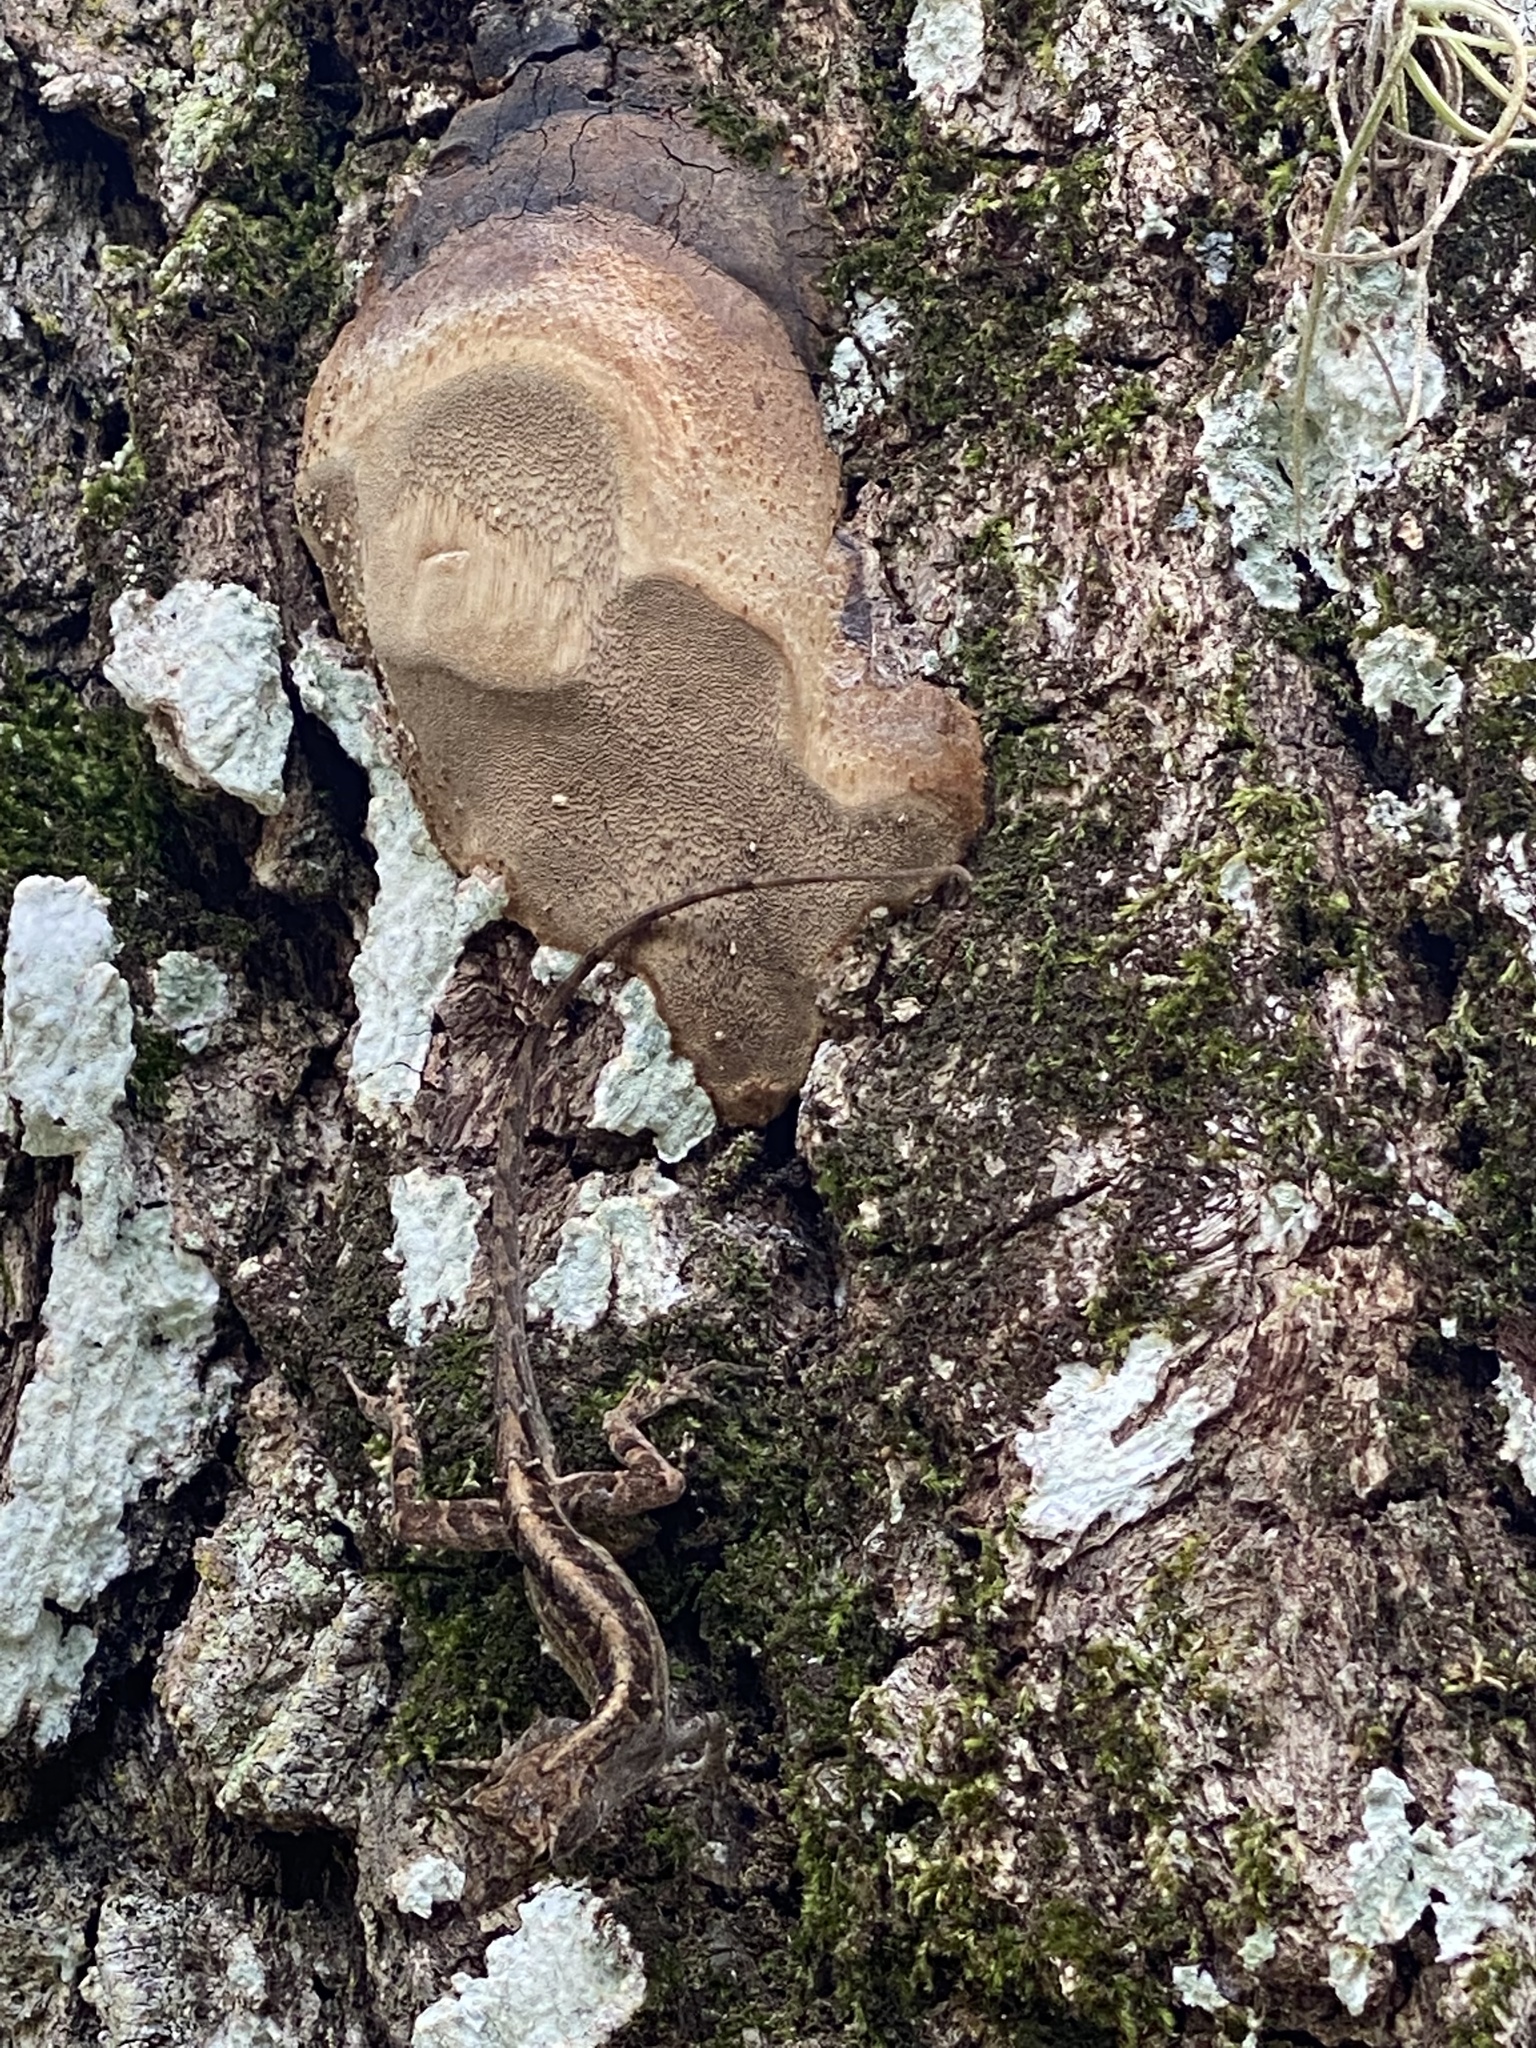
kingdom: Animalia
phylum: Chordata
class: Squamata
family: Dactyloidae
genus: Anolis
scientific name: Anolis sagrei
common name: Brown anole
